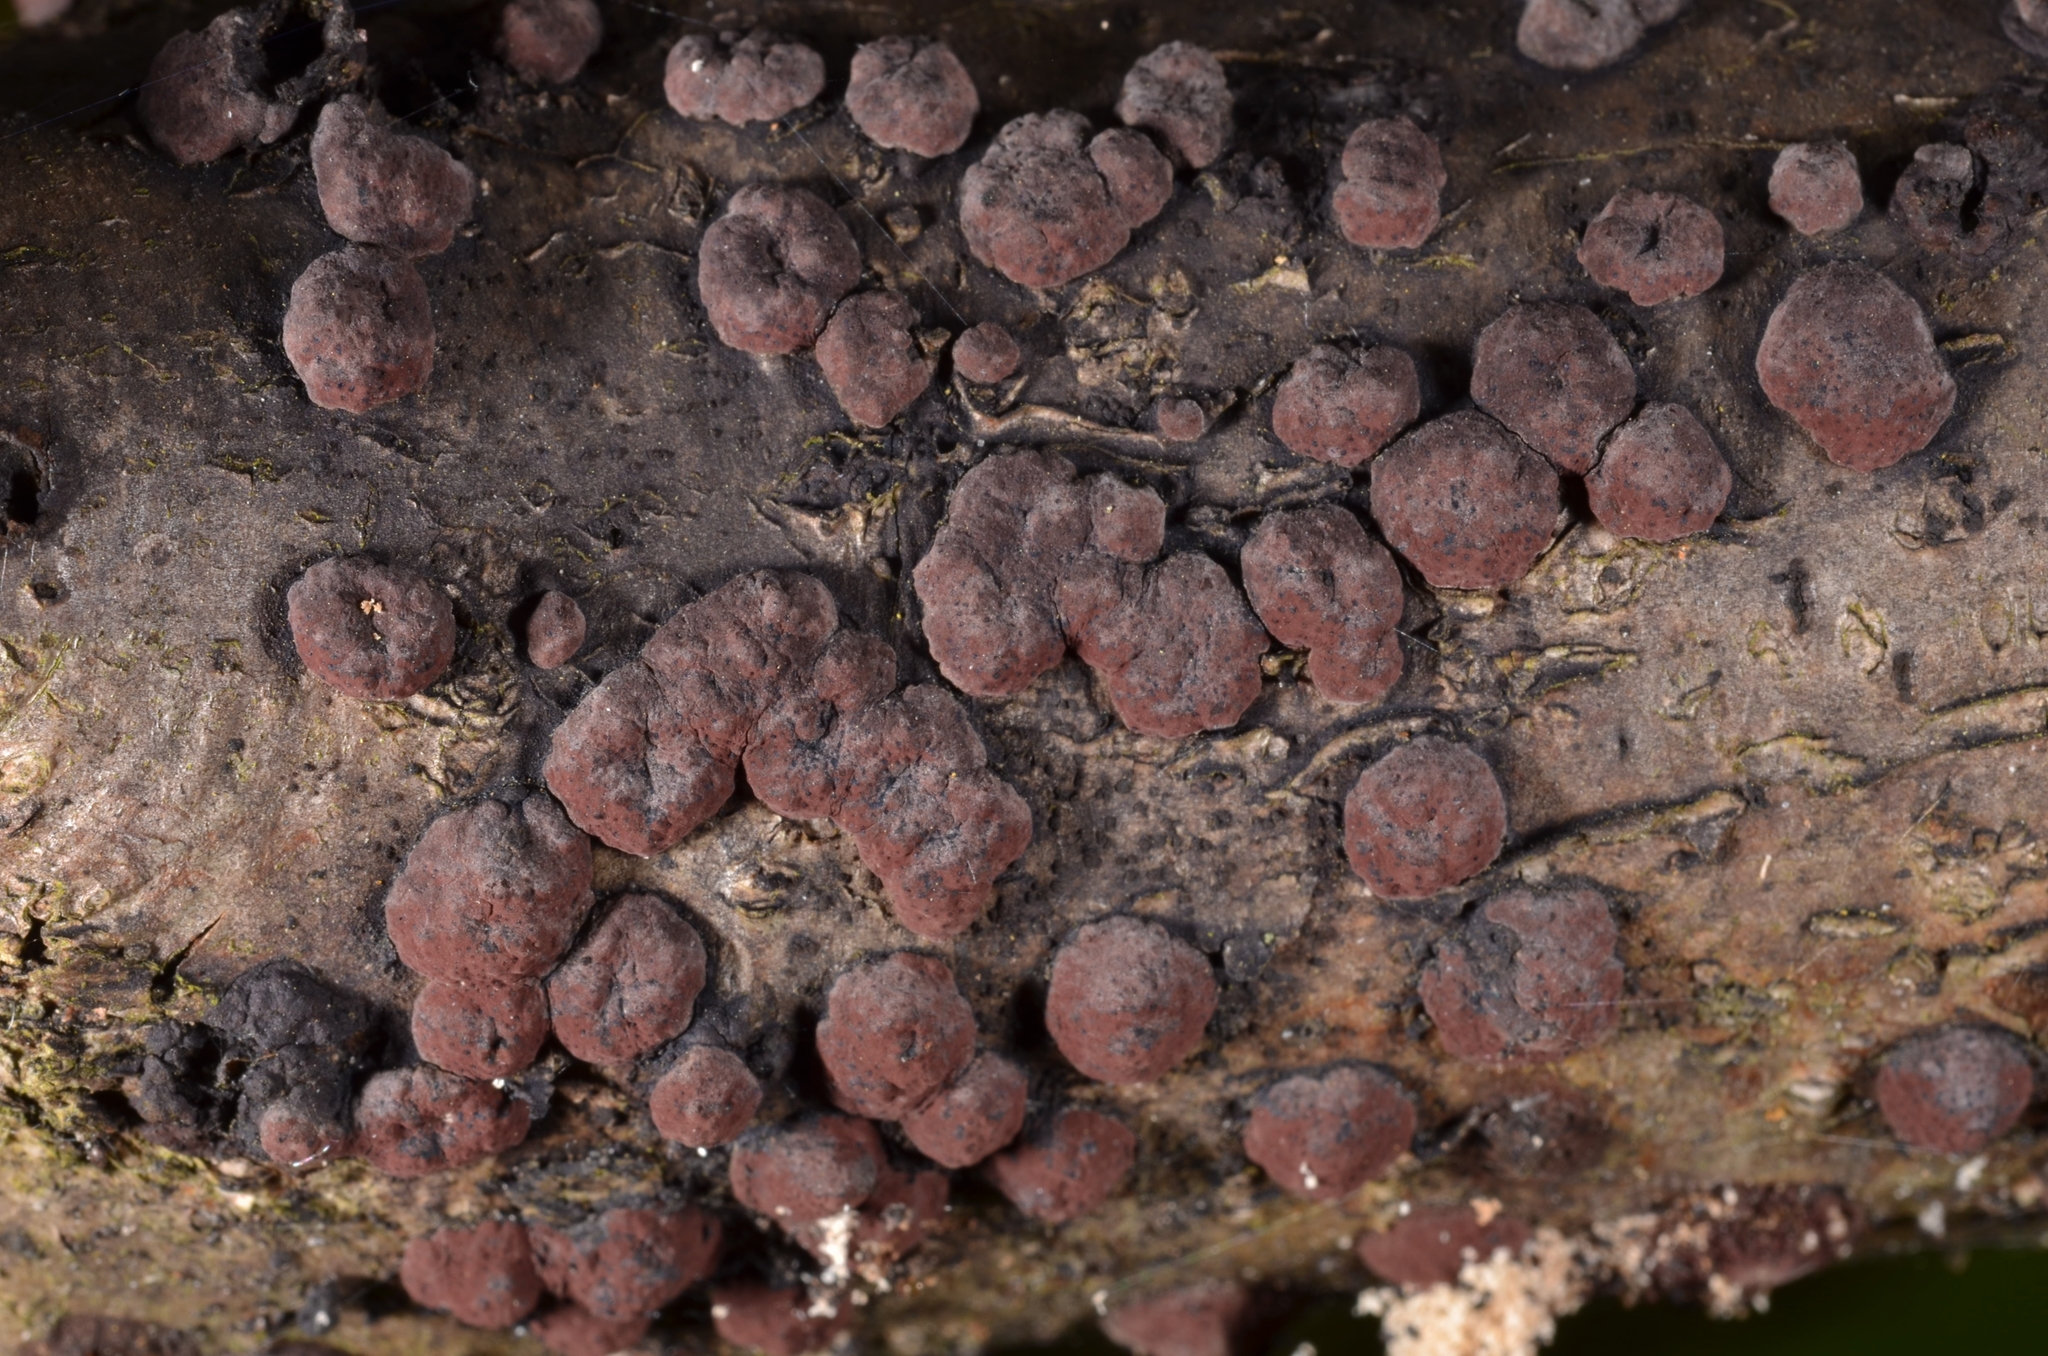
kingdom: Fungi
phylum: Ascomycota
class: Sordariomycetes
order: Xylariales
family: Hypoxylaceae
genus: Hypoxylon
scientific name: Hypoxylon fuscum
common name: Hazel woodwart
